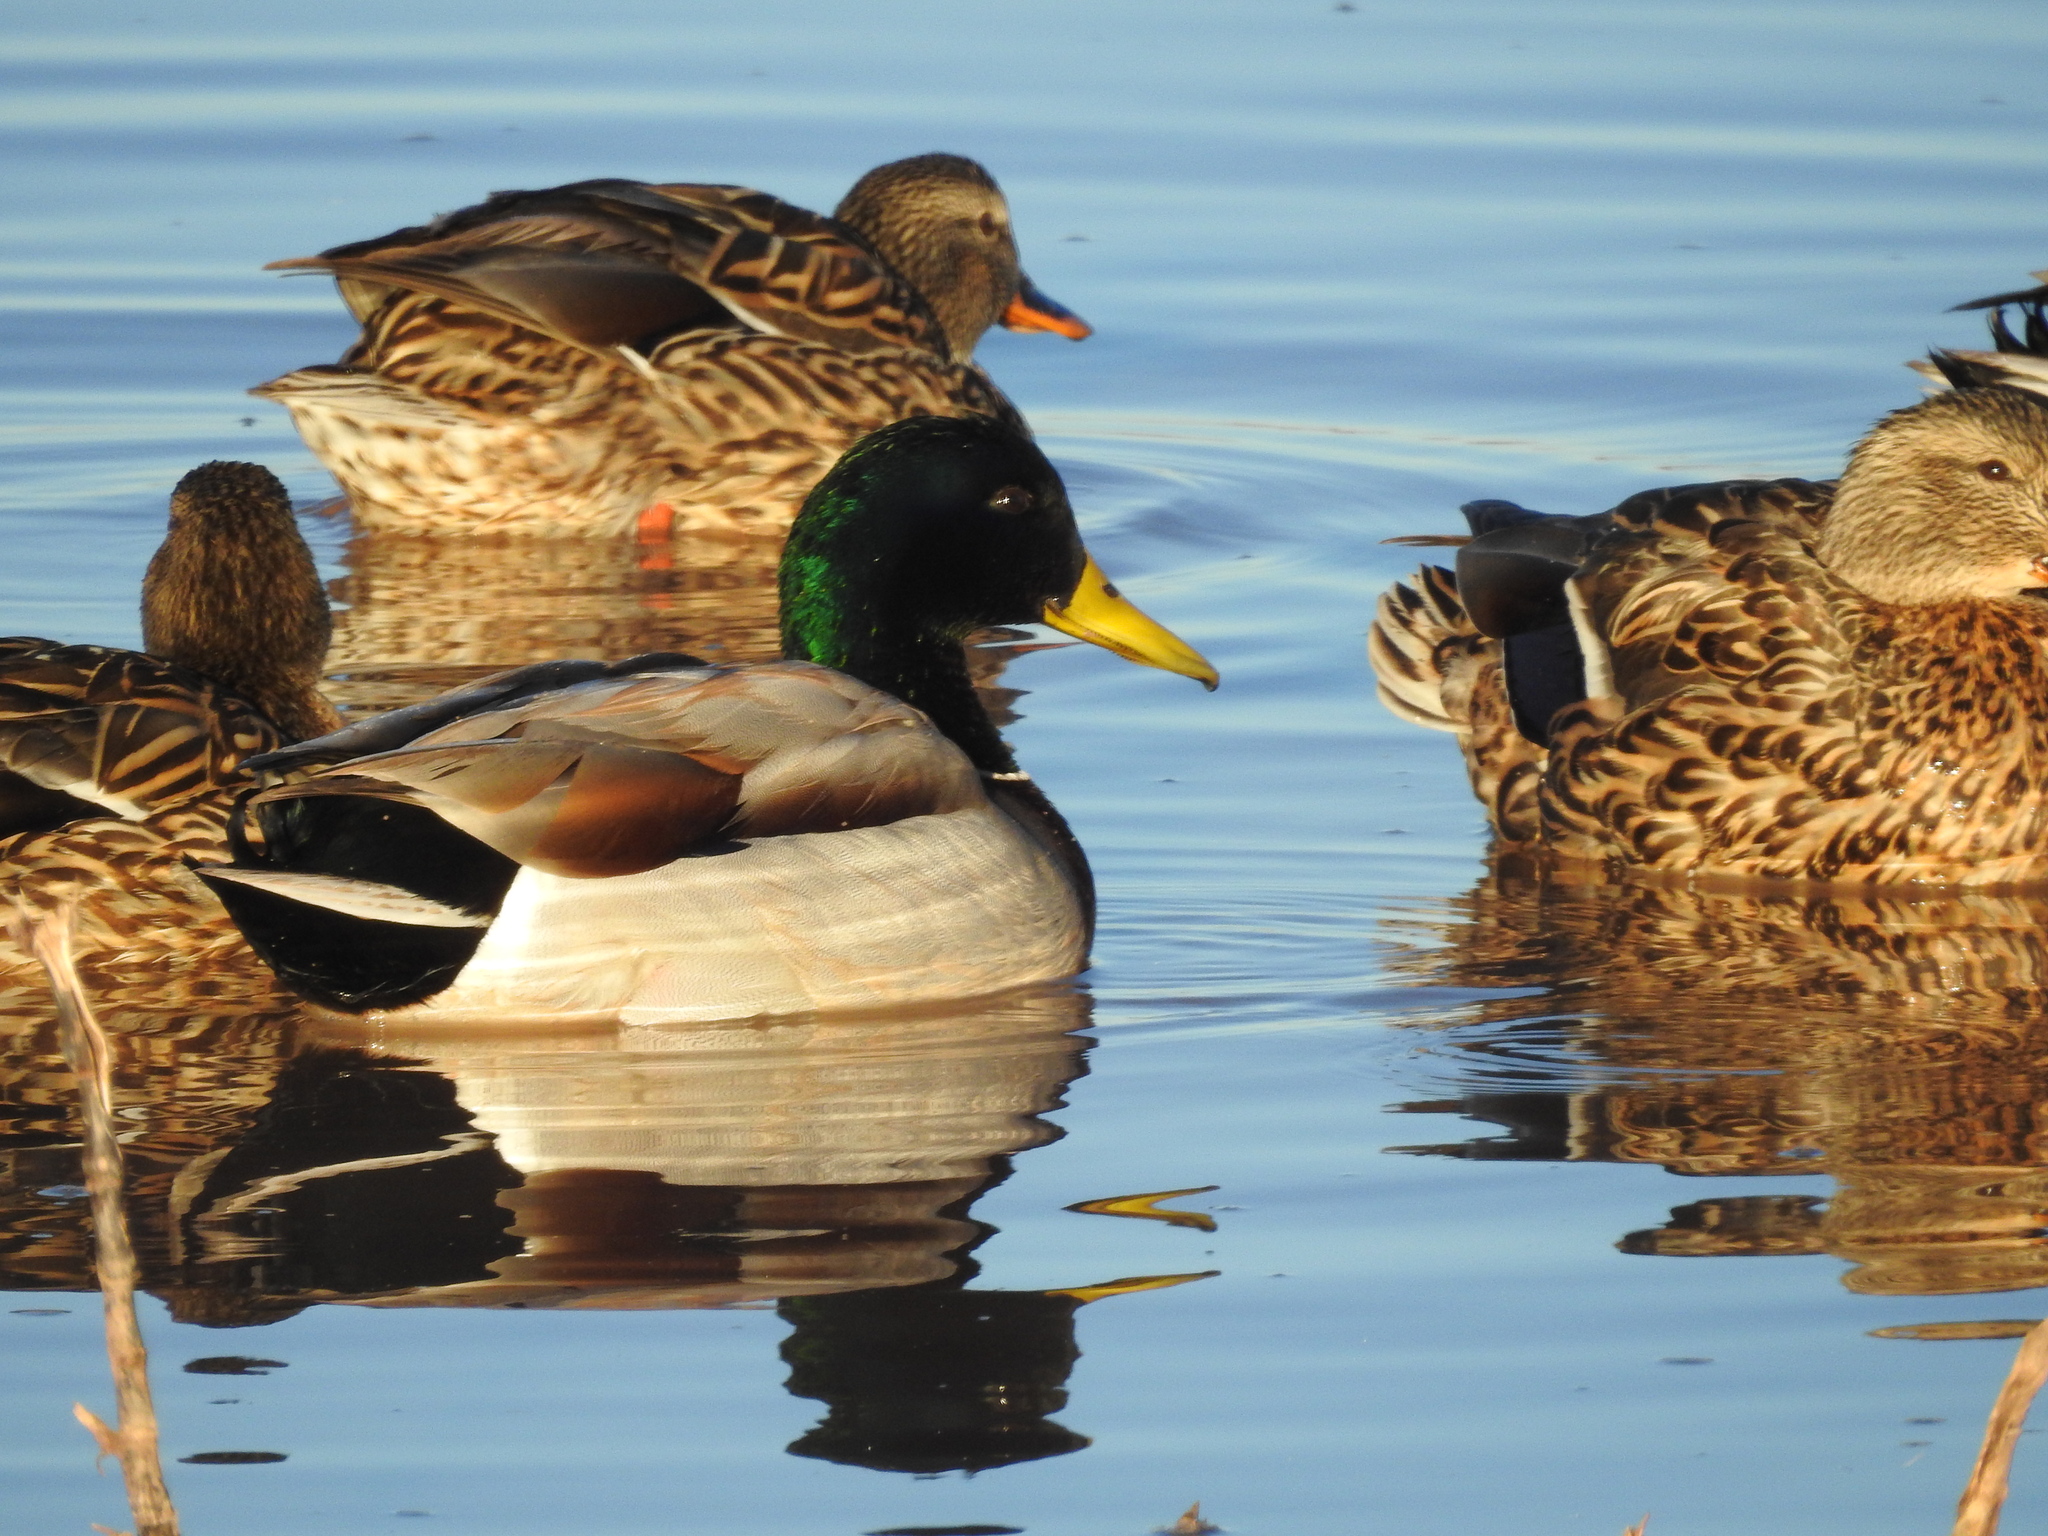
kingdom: Animalia
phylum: Chordata
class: Aves
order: Anseriformes
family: Anatidae
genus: Anas
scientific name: Anas platyrhynchos
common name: Mallard
